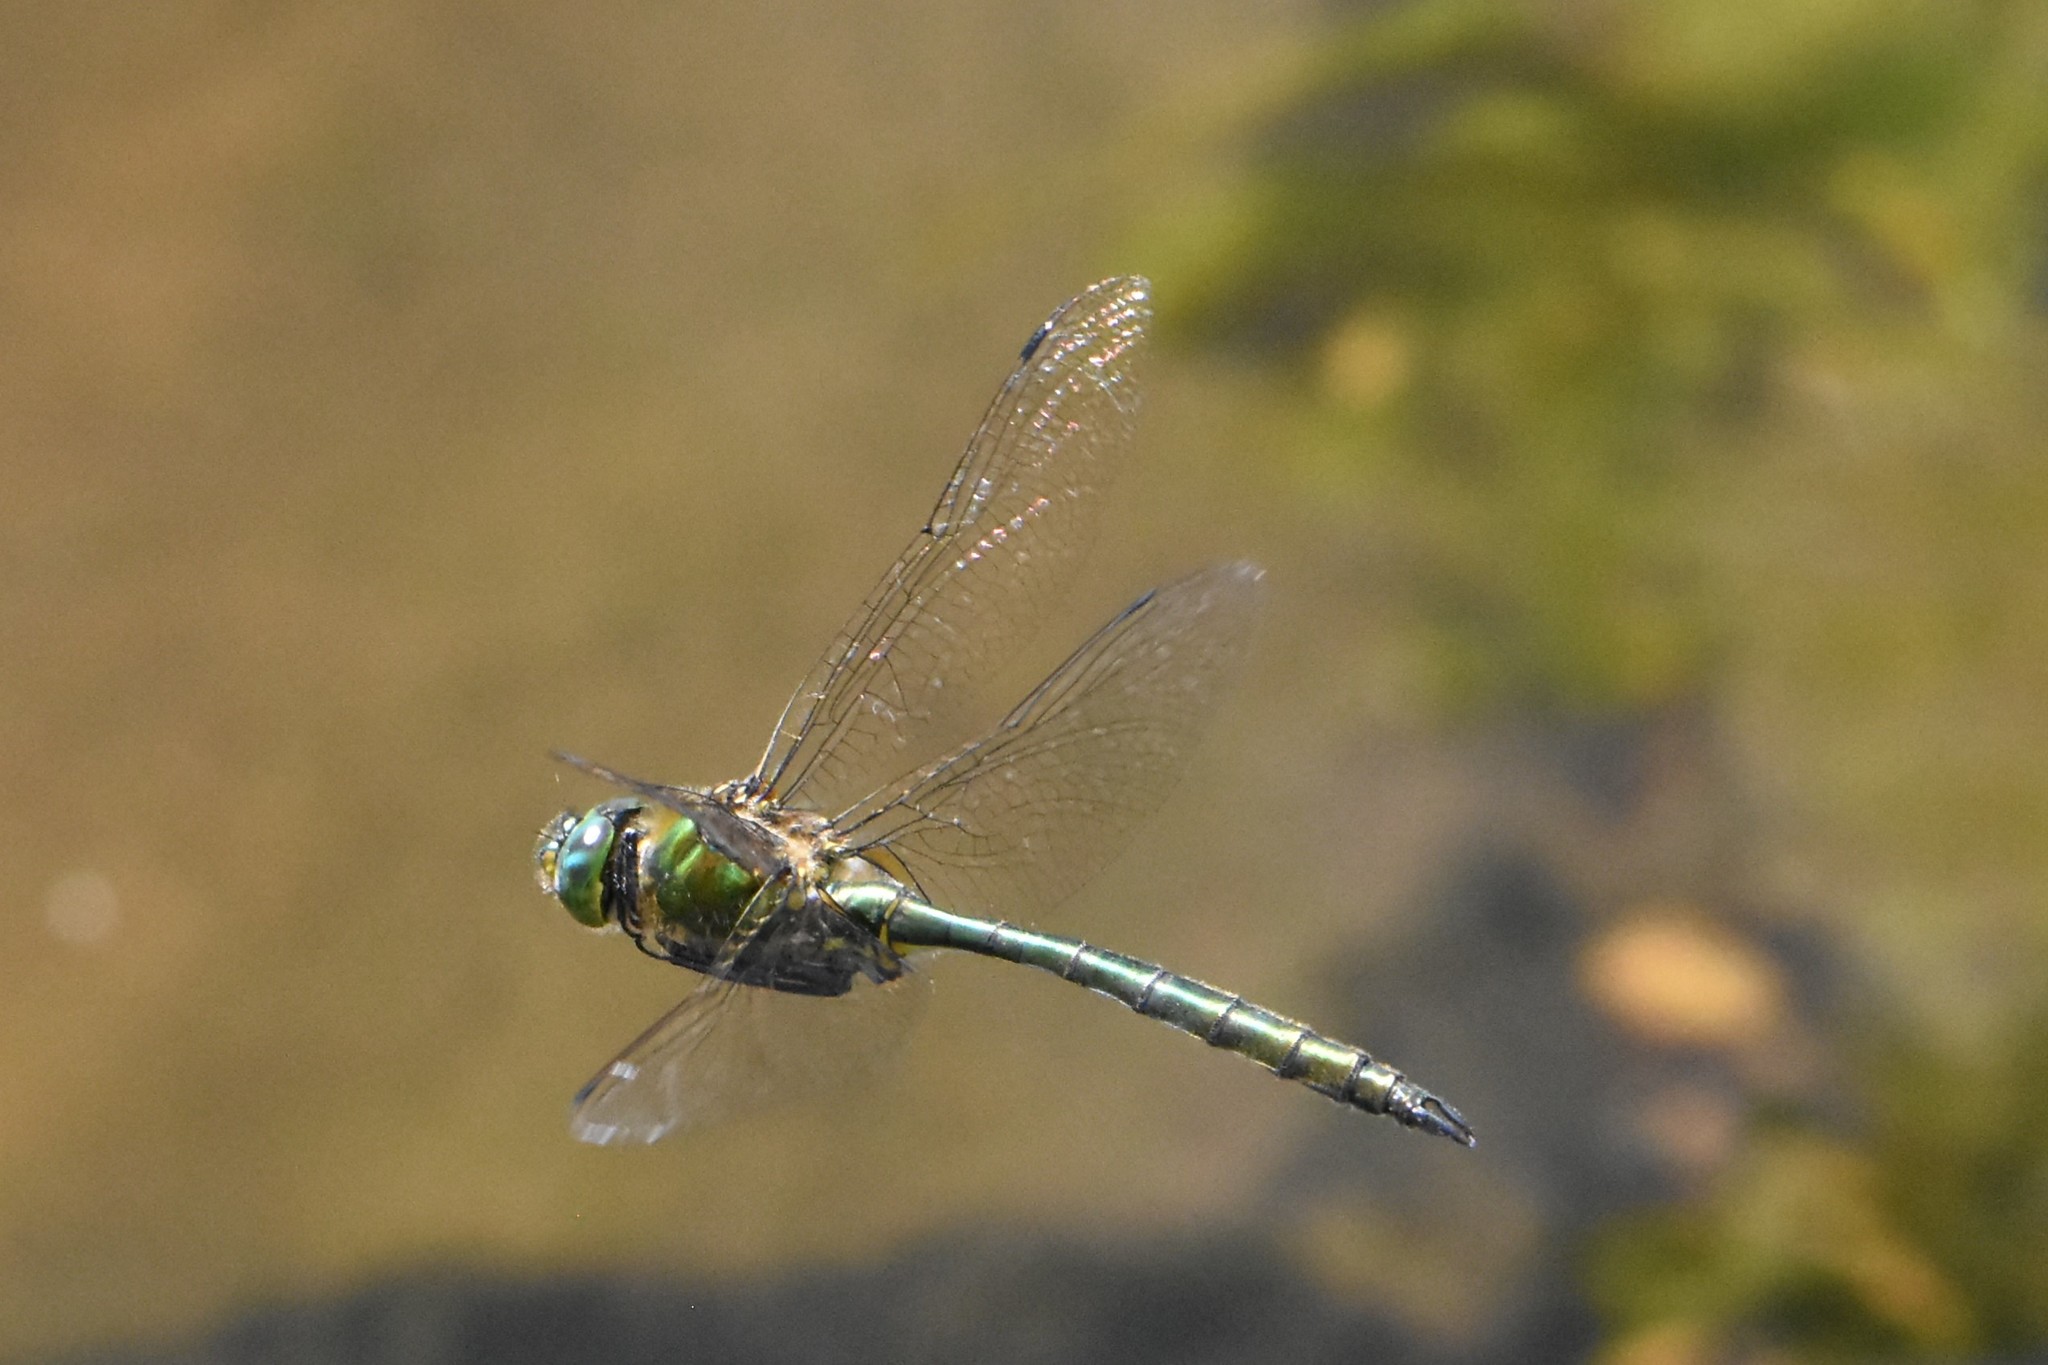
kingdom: Animalia
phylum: Arthropoda
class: Insecta
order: Odonata
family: Corduliidae
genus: Somatochlora
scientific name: Somatochlora metallica
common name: Brilliant emerald
